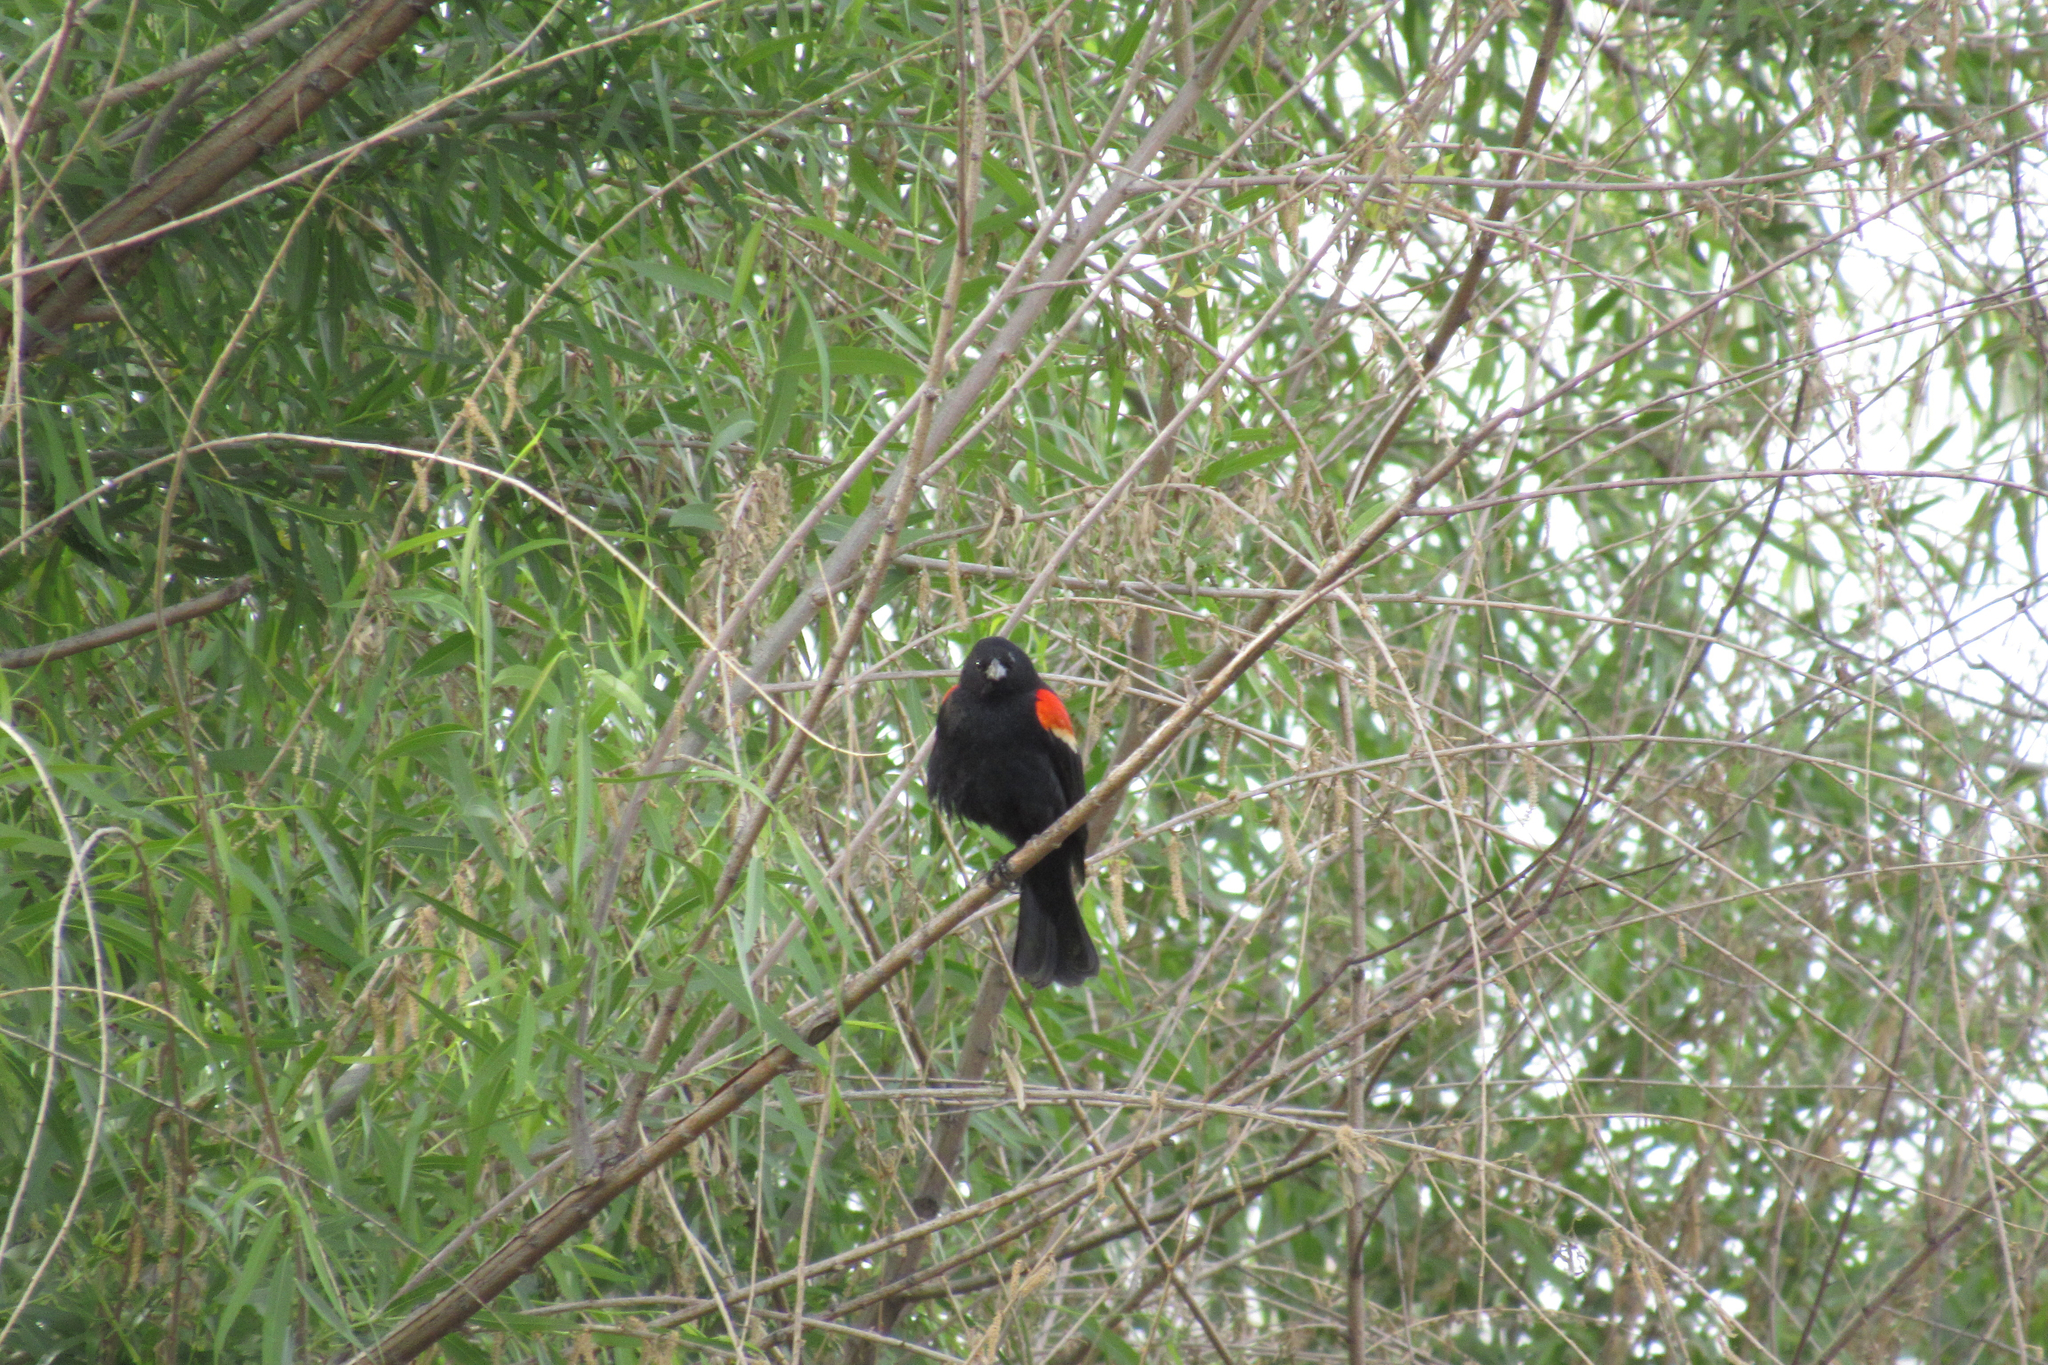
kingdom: Animalia
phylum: Chordata
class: Aves
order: Passeriformes
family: Icteridae
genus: Agelaius
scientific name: Agelaius phoeniceus
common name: Red-winged blackbird
